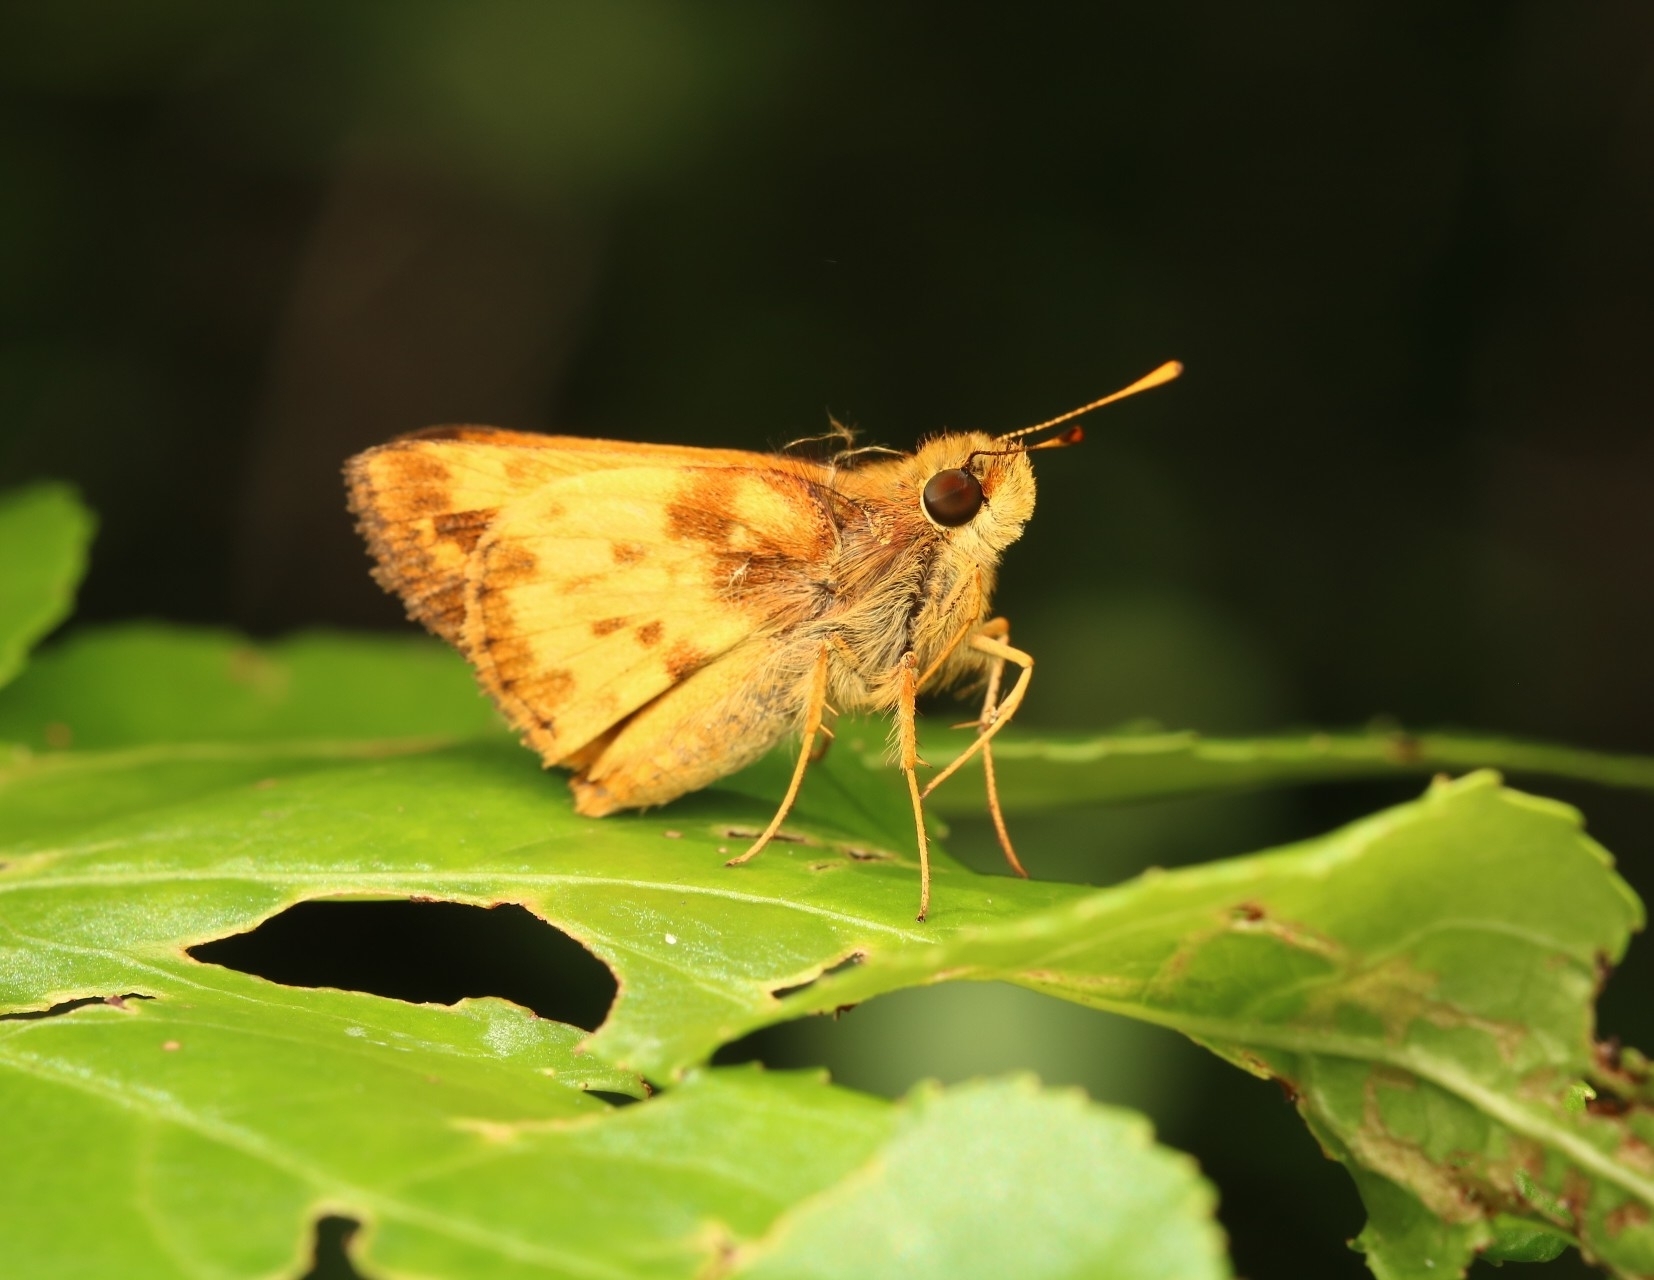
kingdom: Animalia
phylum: Arthropoda
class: Insecta
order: Lepidoptera
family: Hesperiidae
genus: Lon
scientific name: Lon zabulon
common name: Zabulon skipper
